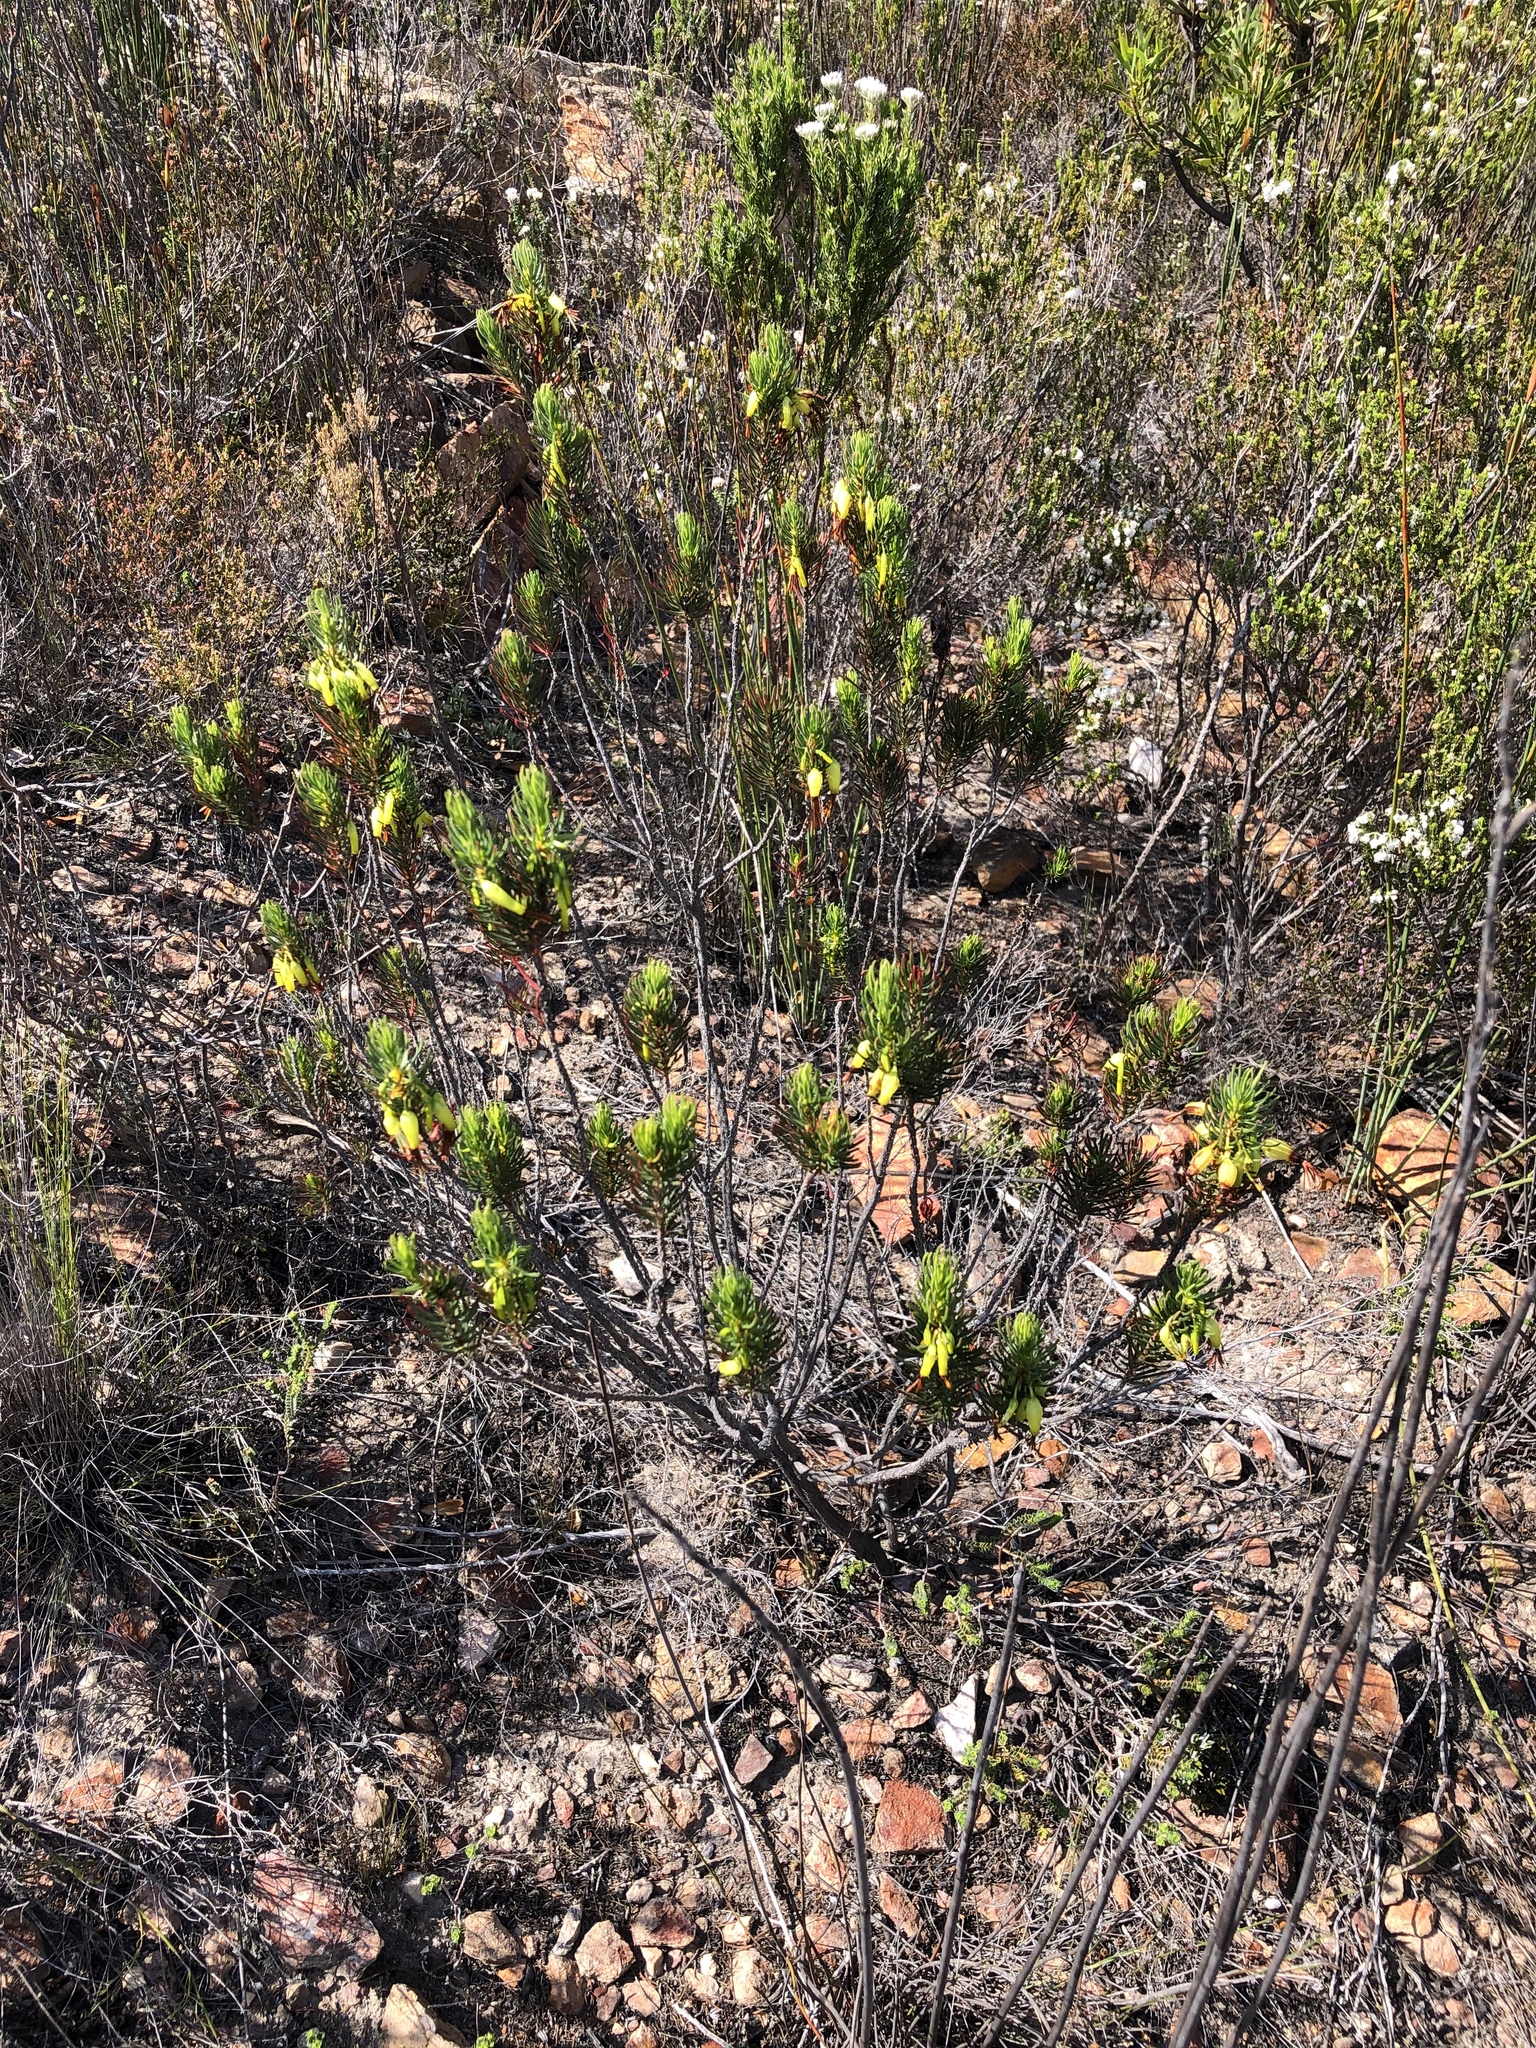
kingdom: Plantae
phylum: Tracheophyta
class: Magnoliopsida
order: Ericales
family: Ericaceae
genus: Erica
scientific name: Erica plukenetii
